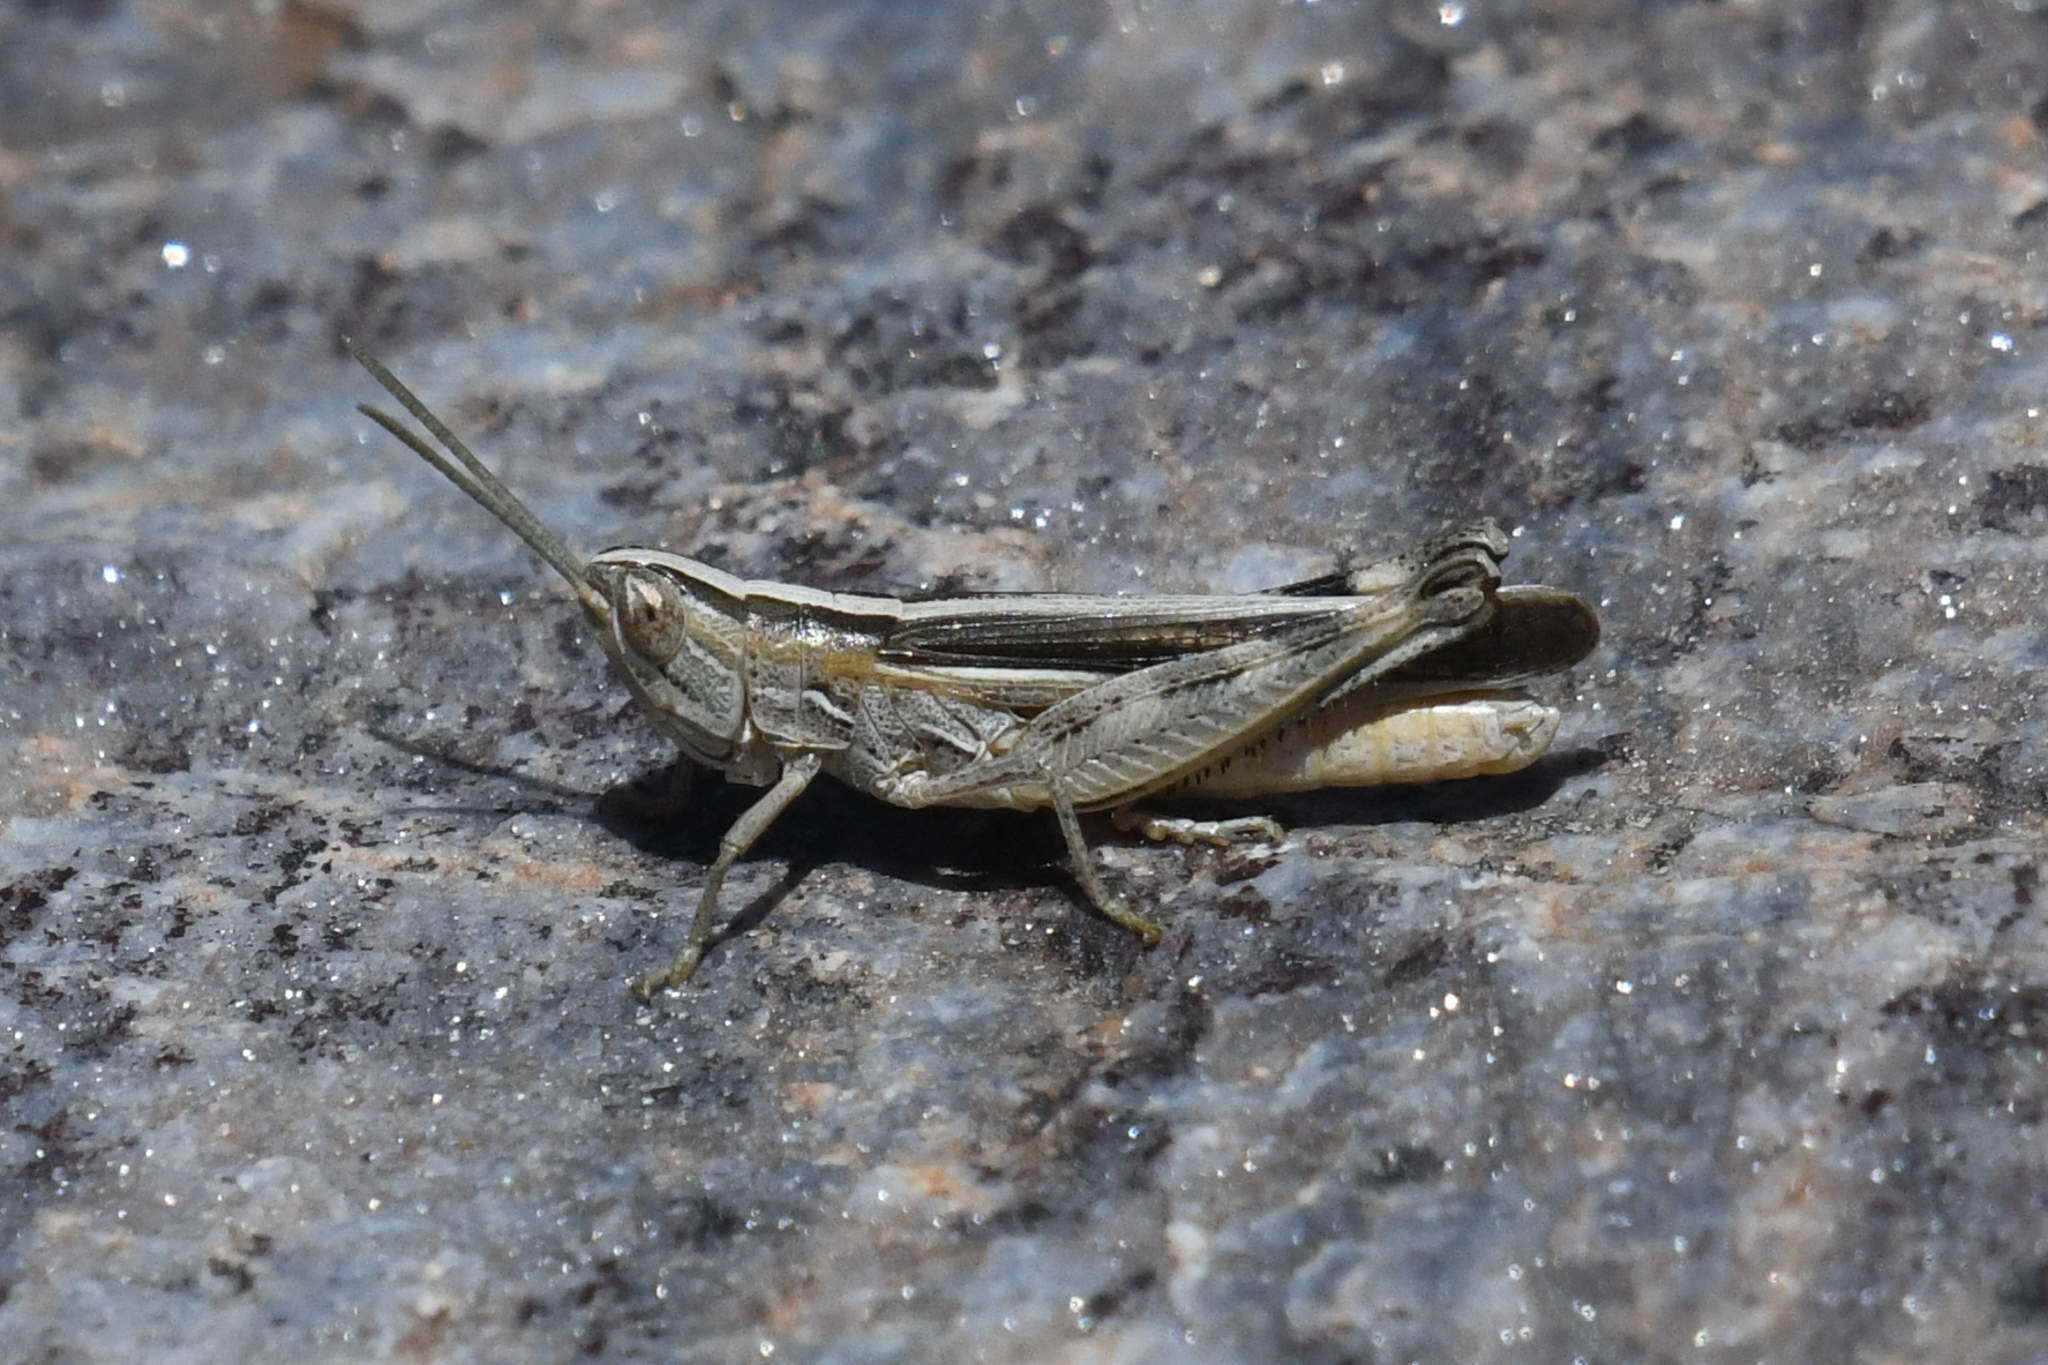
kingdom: Animalia
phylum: Arthropoda
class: Insecta
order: Orthoptera
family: Acrididae
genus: Amphitornus
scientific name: Amphitornus coloradus
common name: Striped grasshopper
